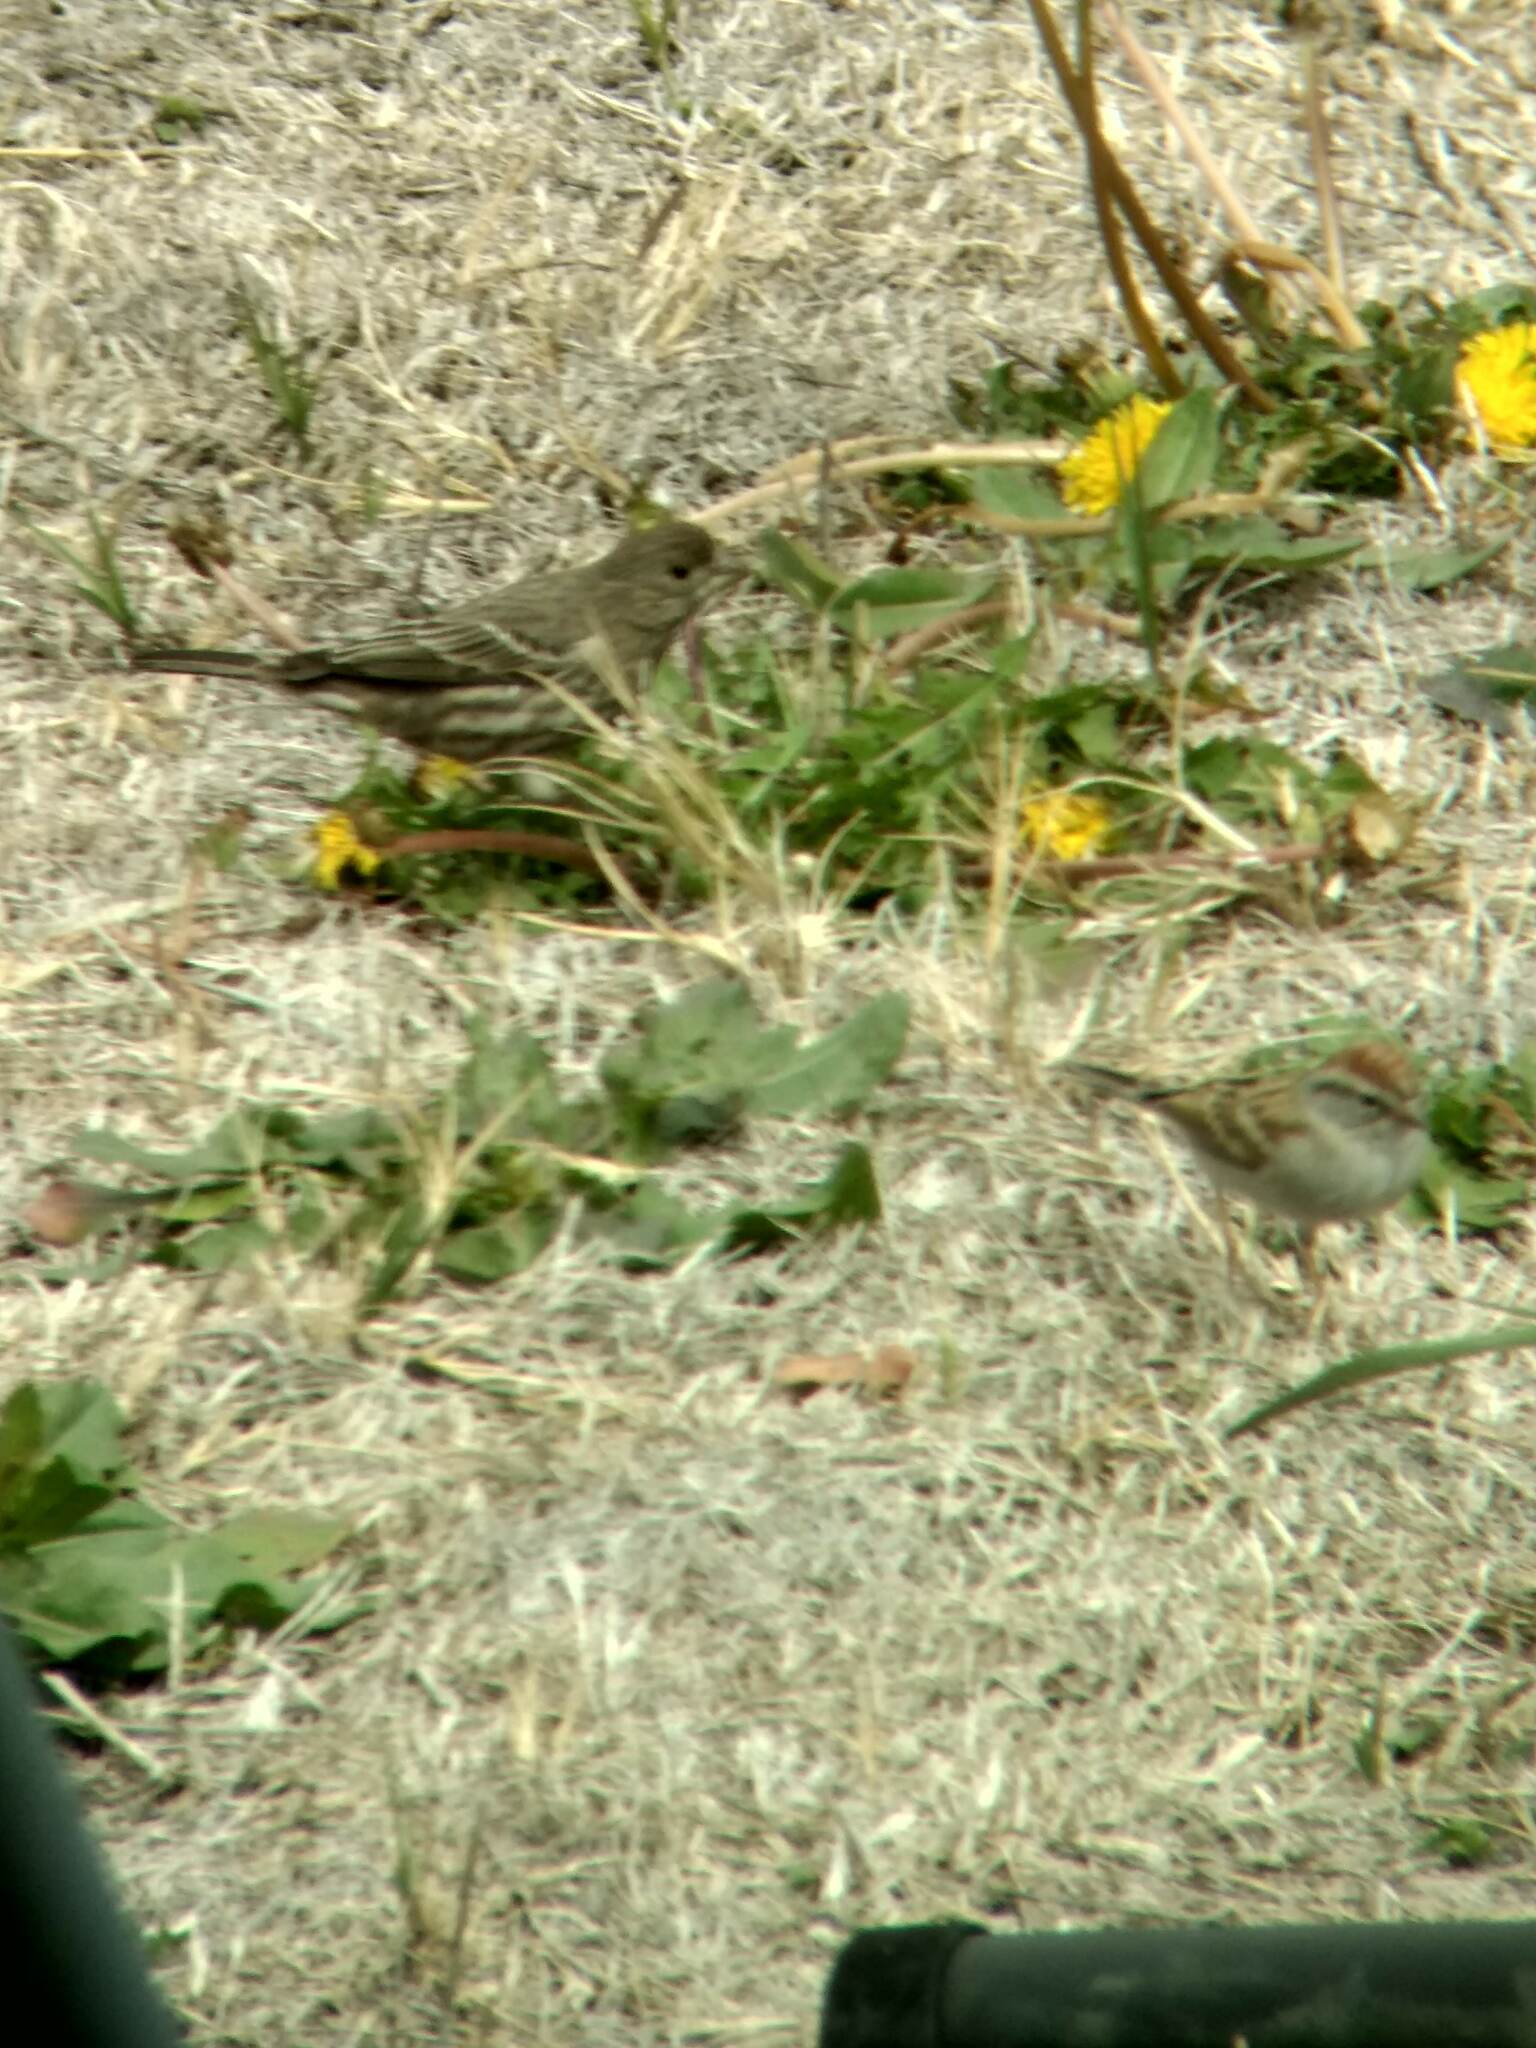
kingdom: Animalia
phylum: Chordata
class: Aves
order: Passeriformes
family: Fringillidae
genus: Haemorhous
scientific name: Haemorhous mexicanus
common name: House finch
